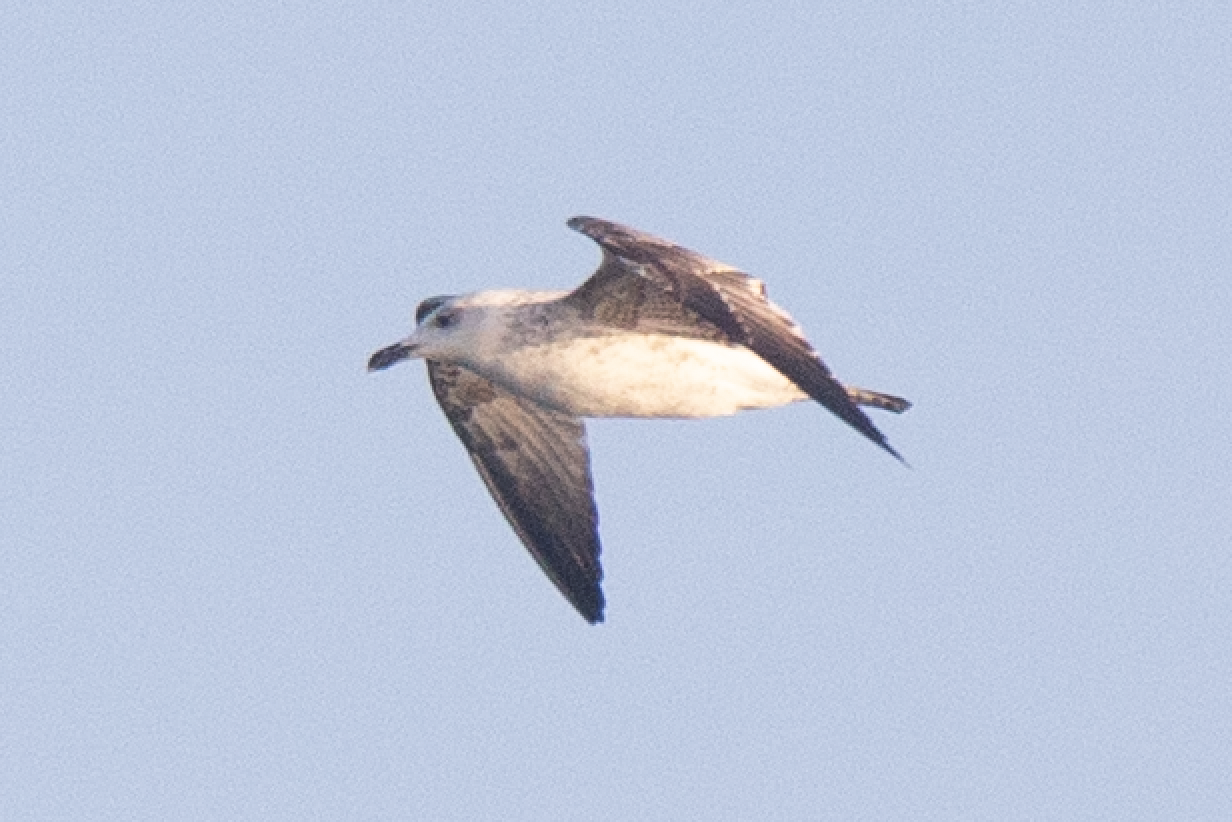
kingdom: Animalia
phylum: Chordata
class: Aves
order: Charadriiformes
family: Laridae
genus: Larus
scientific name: Larus michahellis
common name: Yellow-legged gull
